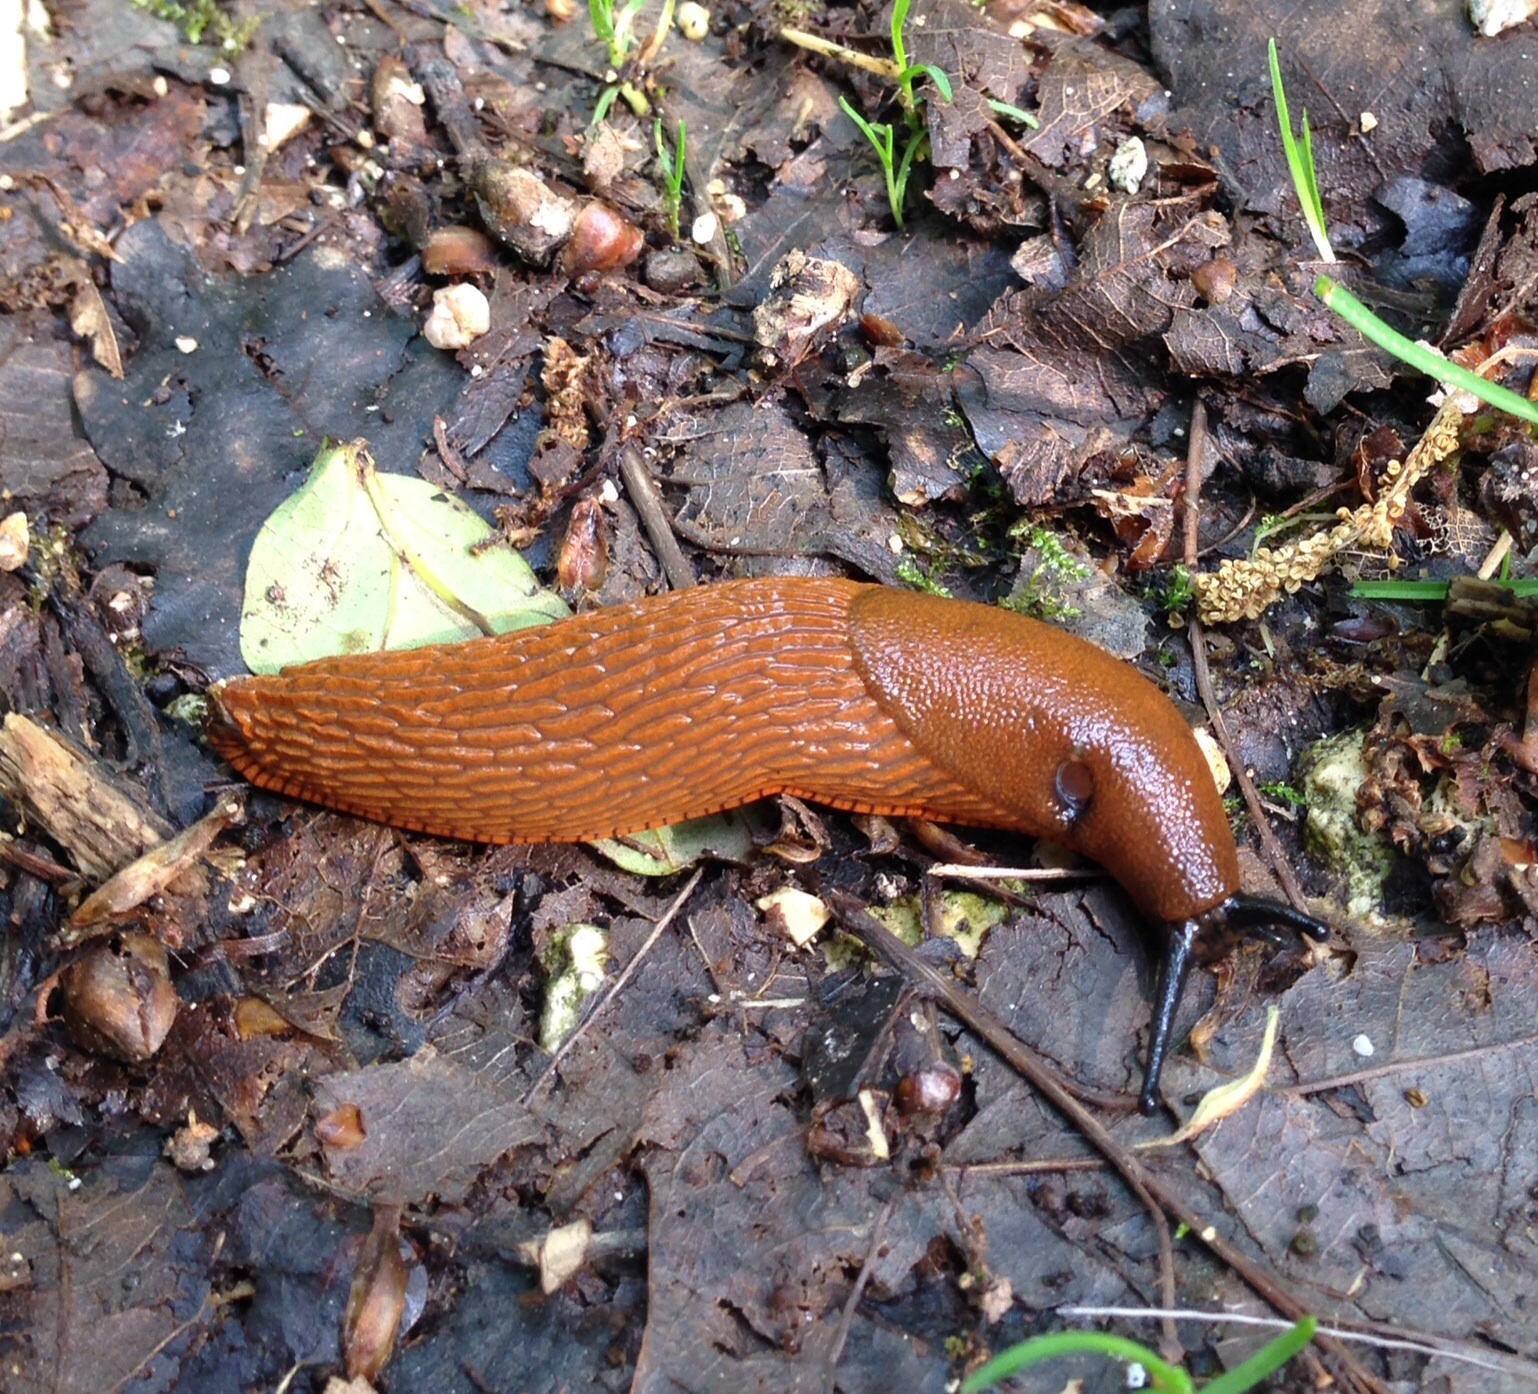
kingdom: Animalia
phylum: Mollusca
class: Gastropoda
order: Stylommatophora
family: Arionidae
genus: Arion
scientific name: Arion rufus
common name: Chocolate arion
